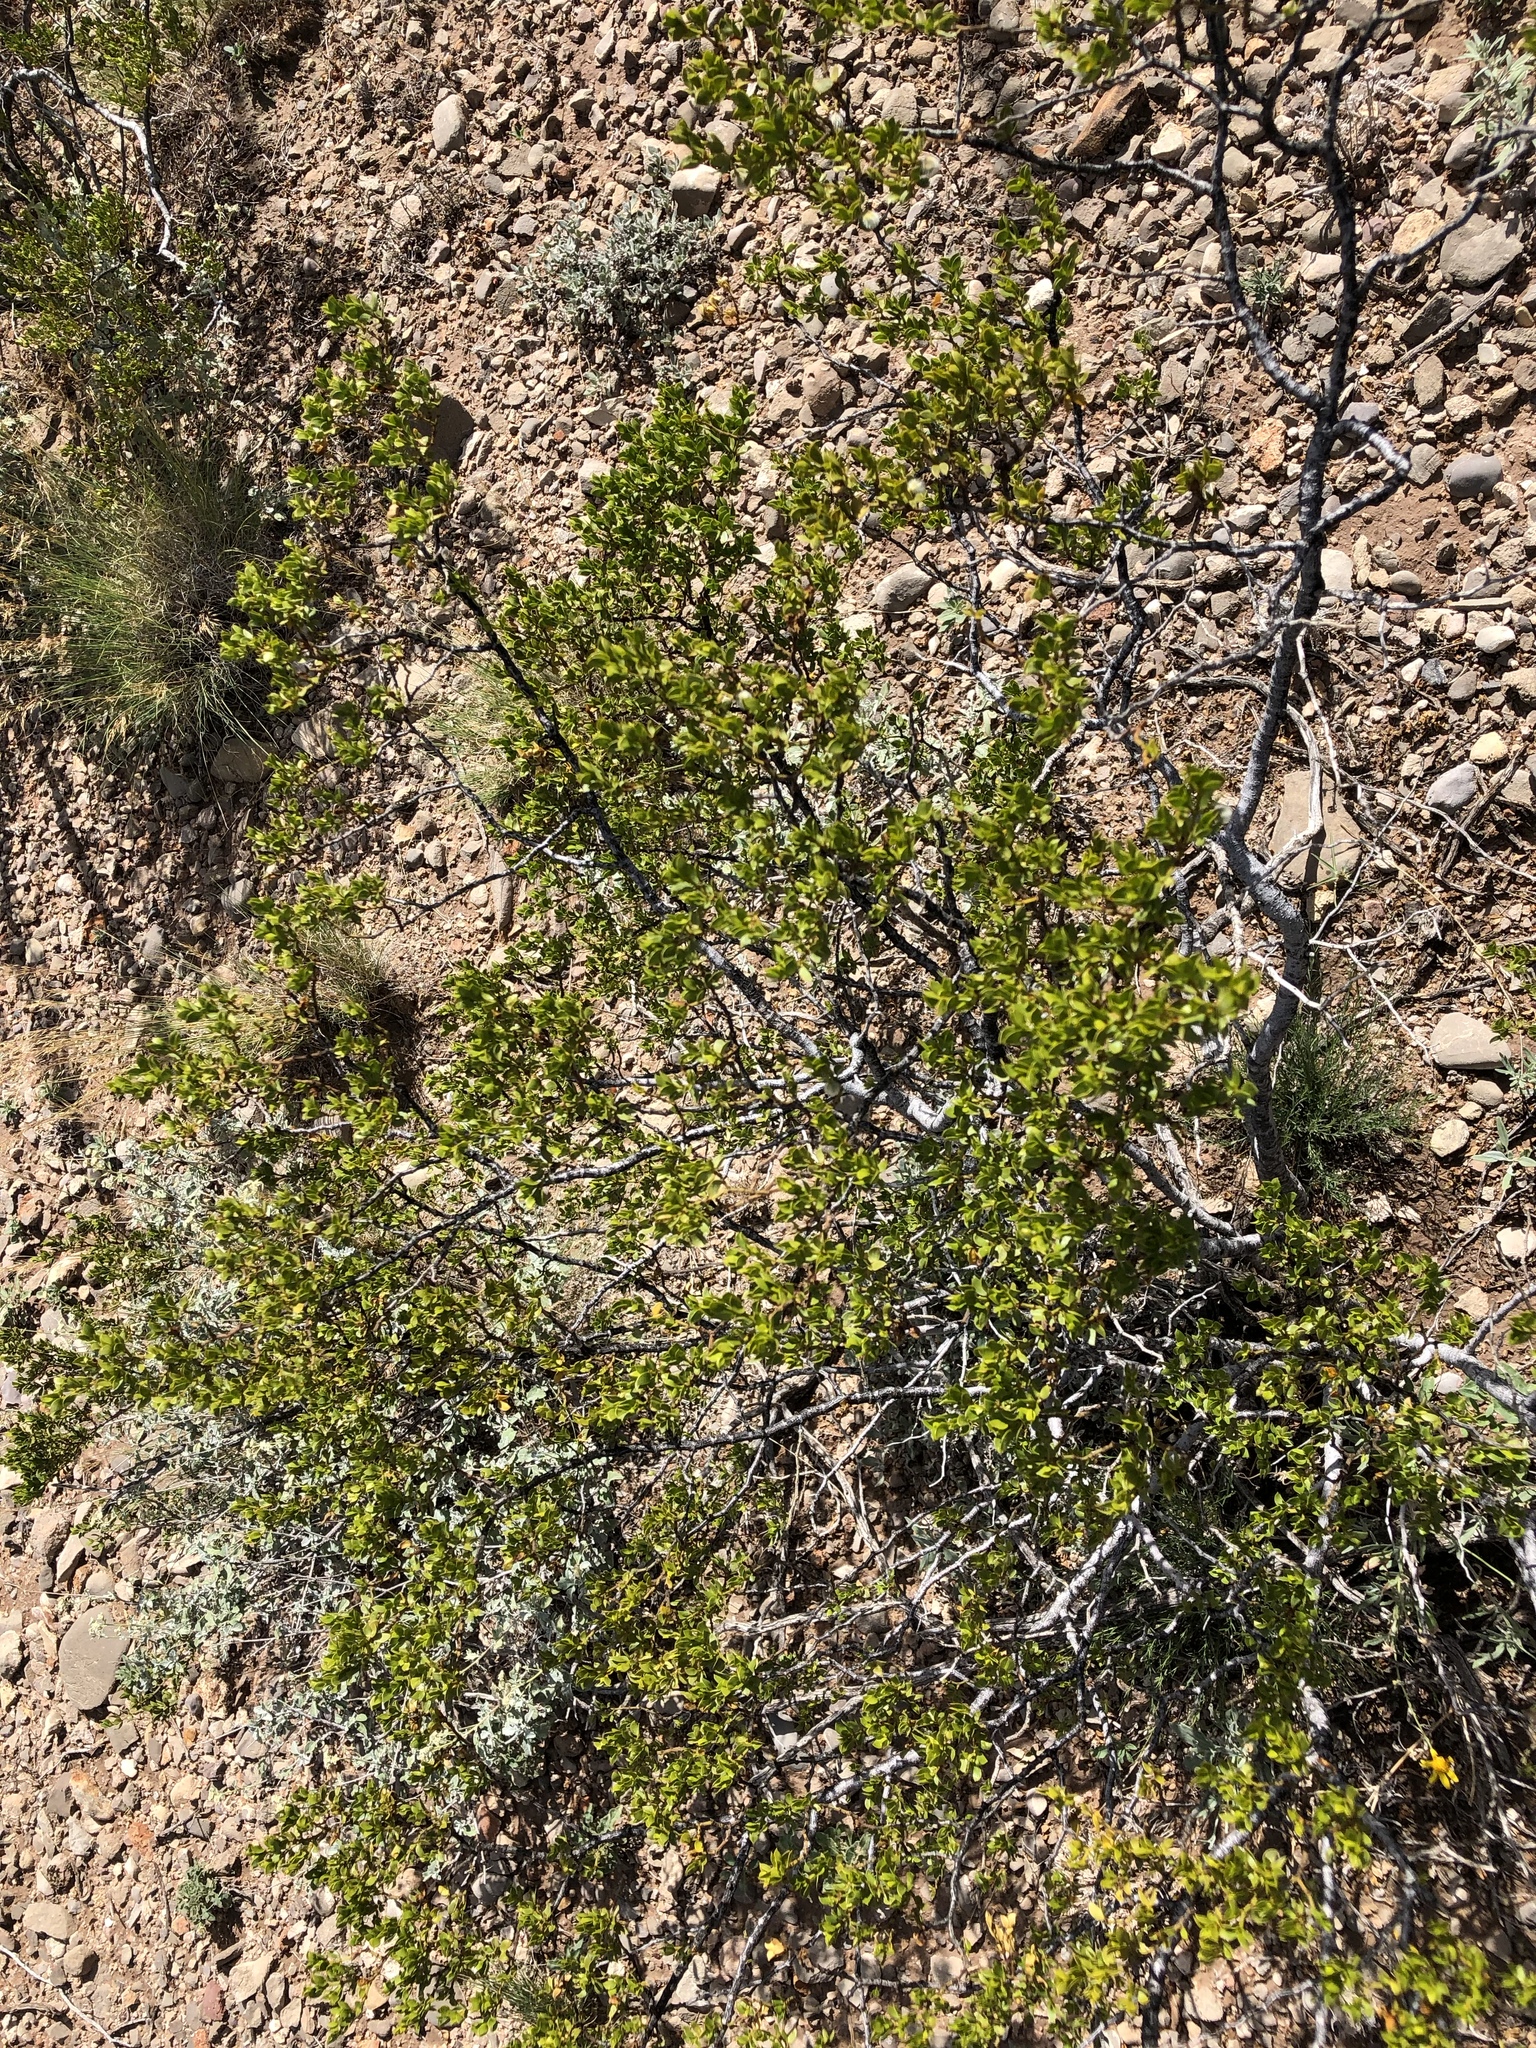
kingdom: Plantae
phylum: Tracheophyta
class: Magnoliopsida
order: Zygophyllales
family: Zygophyllaceae
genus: Larrea
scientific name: Larrea tridentata
